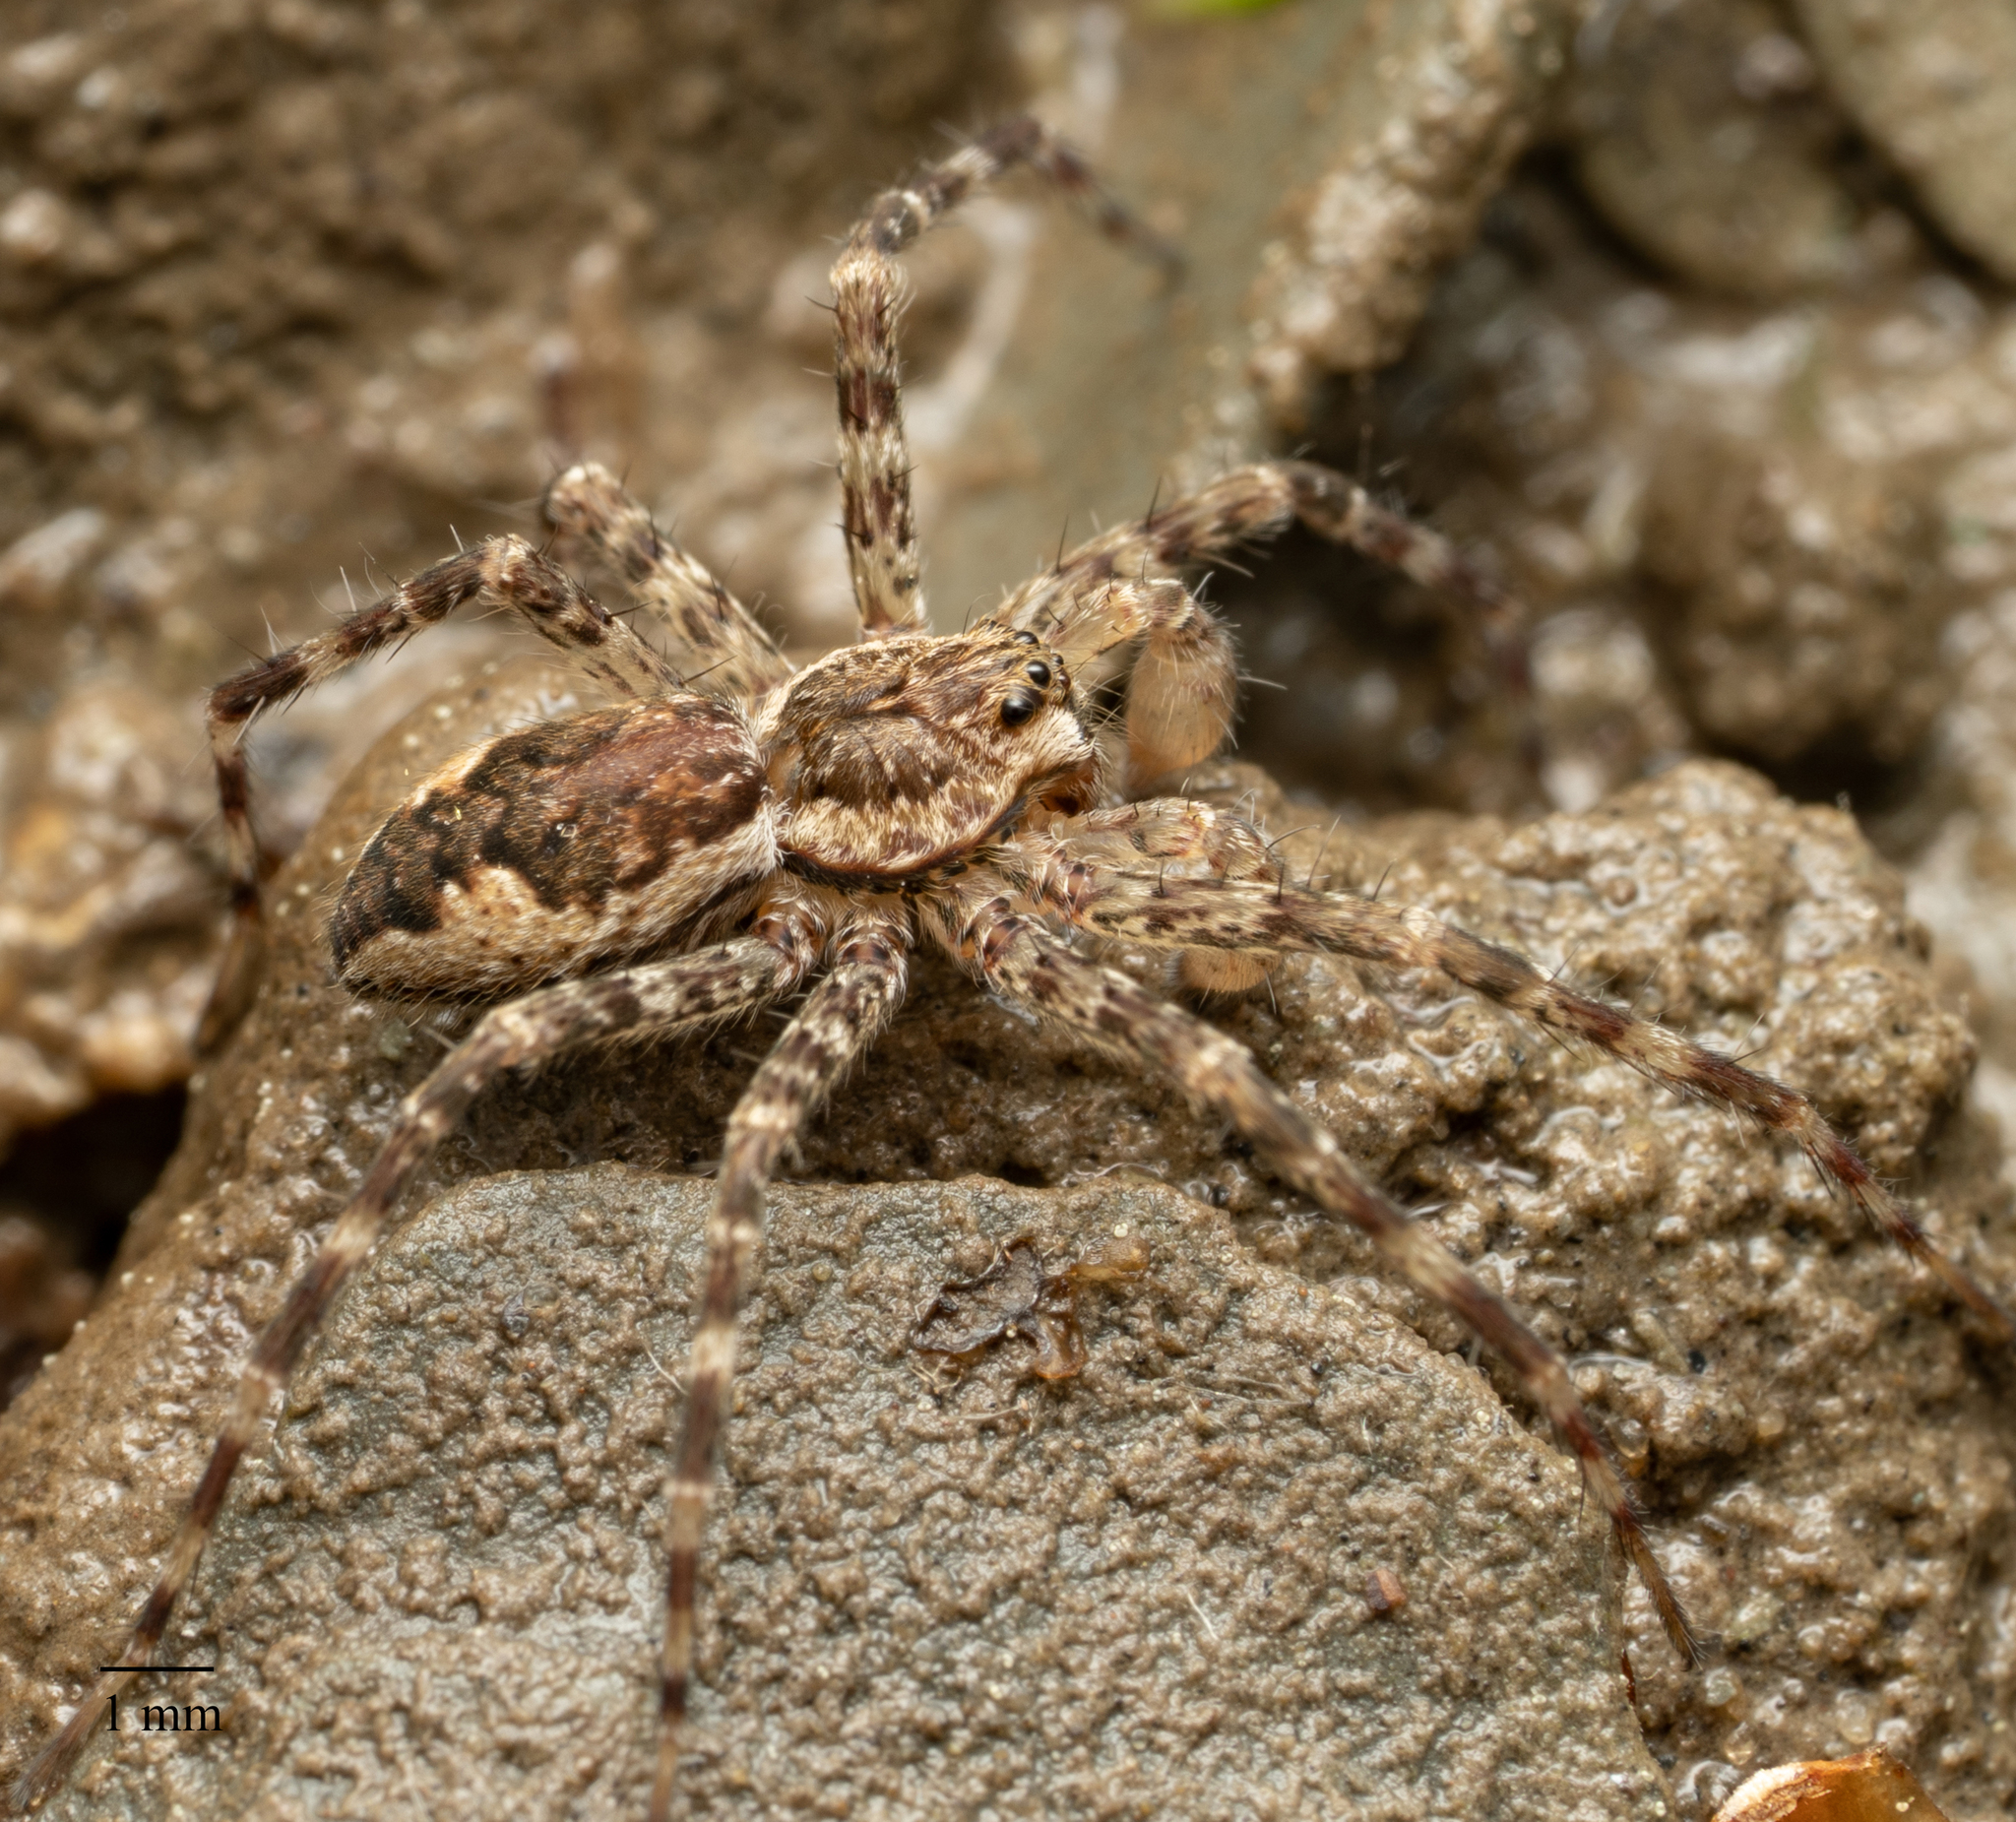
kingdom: Animalia
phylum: Arthropoda
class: Arachnida
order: Araneae
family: Pisauridae
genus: Dolomedes
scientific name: Dolomedes tenebrosus
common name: Dark fishing spider
